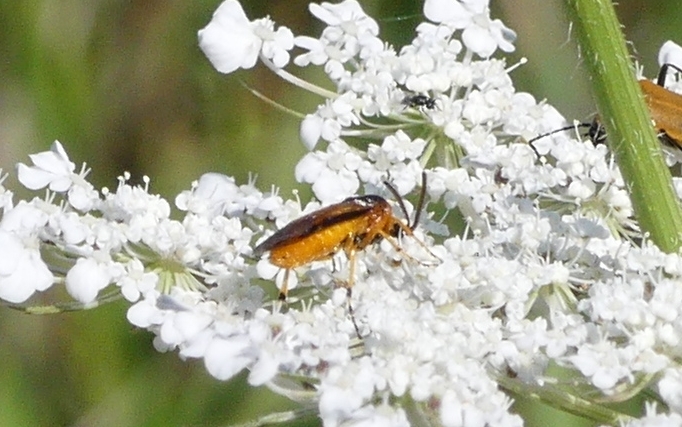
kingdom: Animalia
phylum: Arthropoda
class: Insecta
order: Hymenoptera
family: Argidae
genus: Arge
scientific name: Arge ochropus
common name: Argid sawfly
